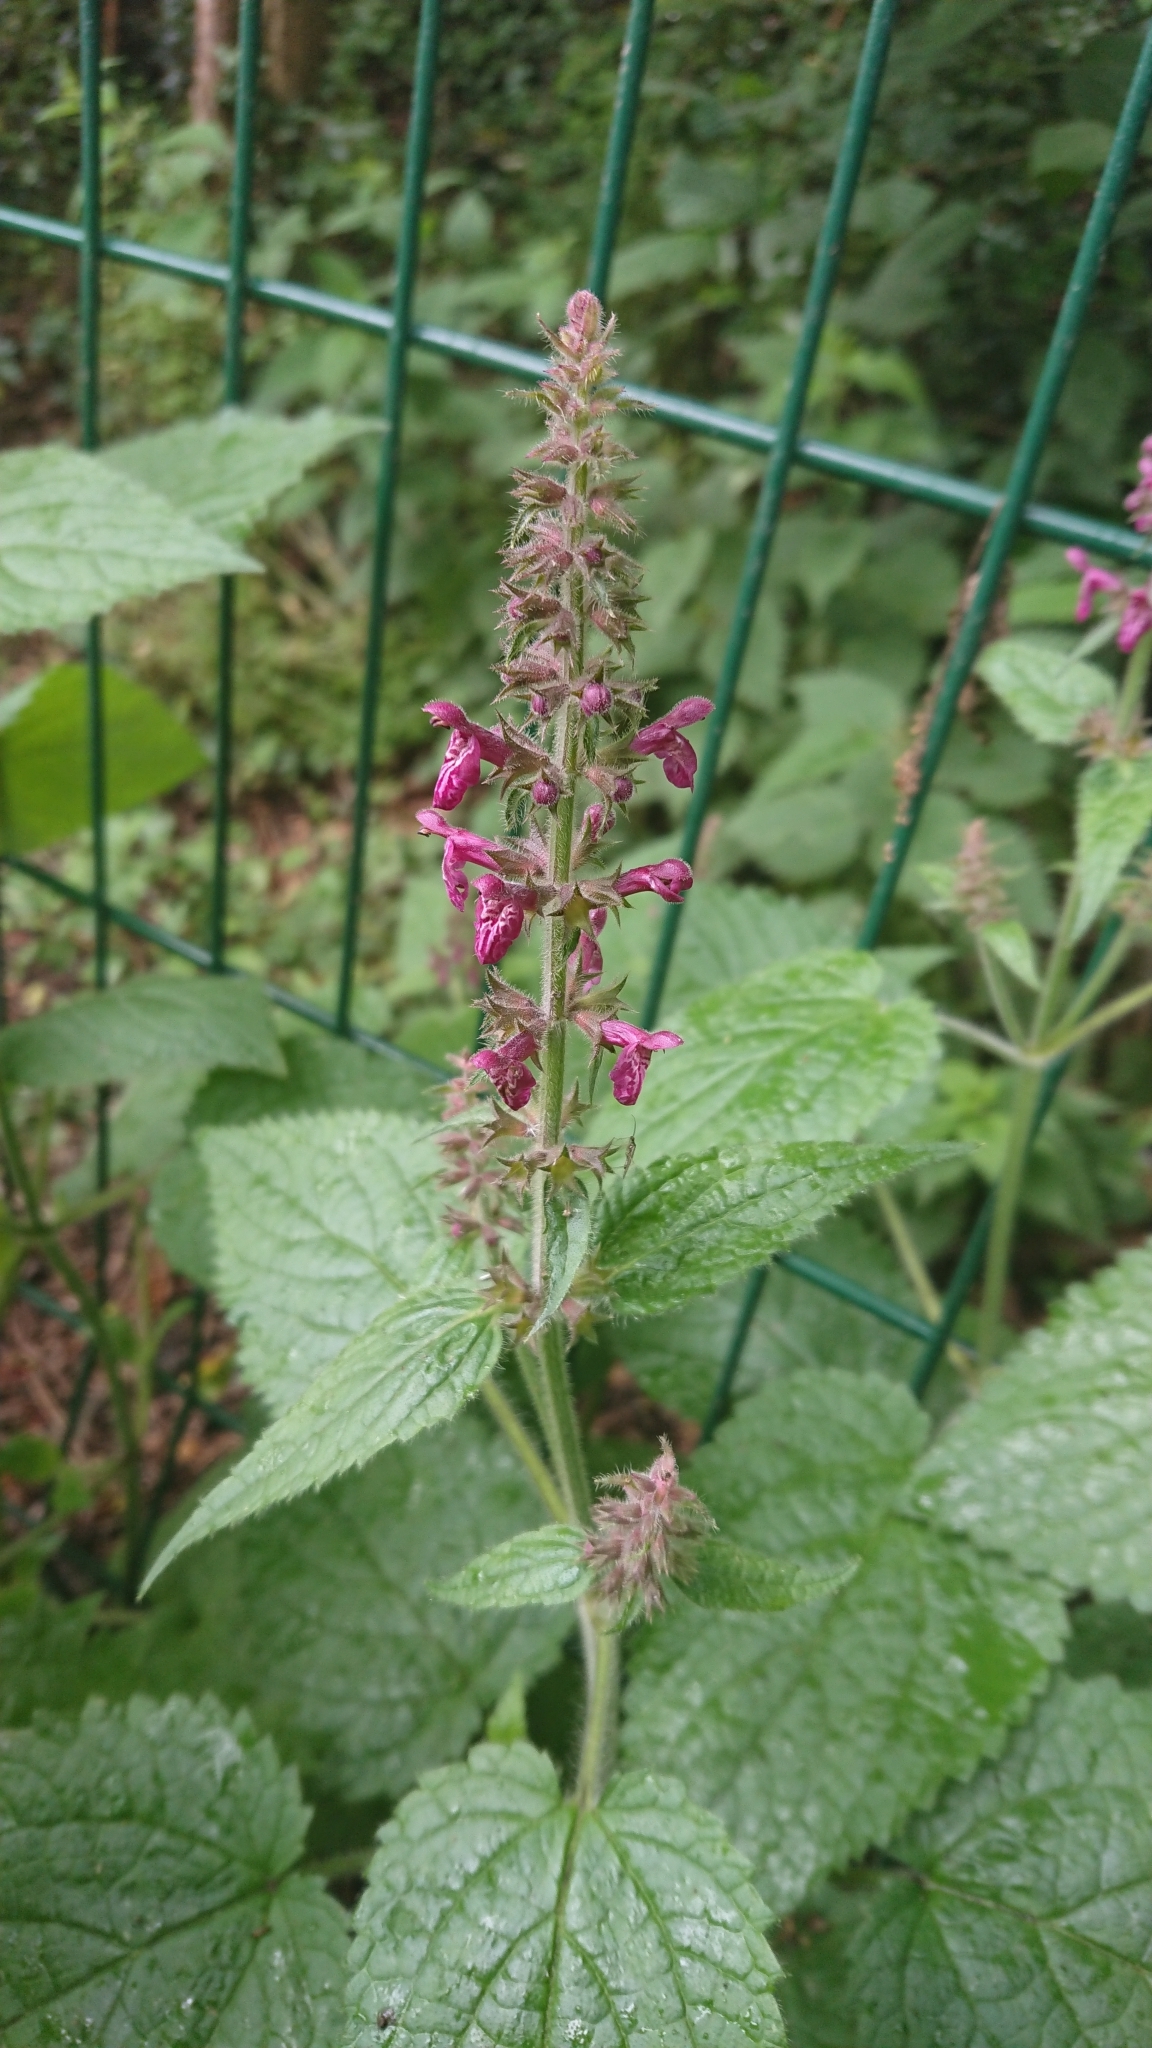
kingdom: Plantae
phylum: Tracheophyta
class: Magnoliopsida
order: Lamiales
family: Lamiaceae
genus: Stachys
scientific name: Stachys sylvatica
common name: Hedge woundwort
